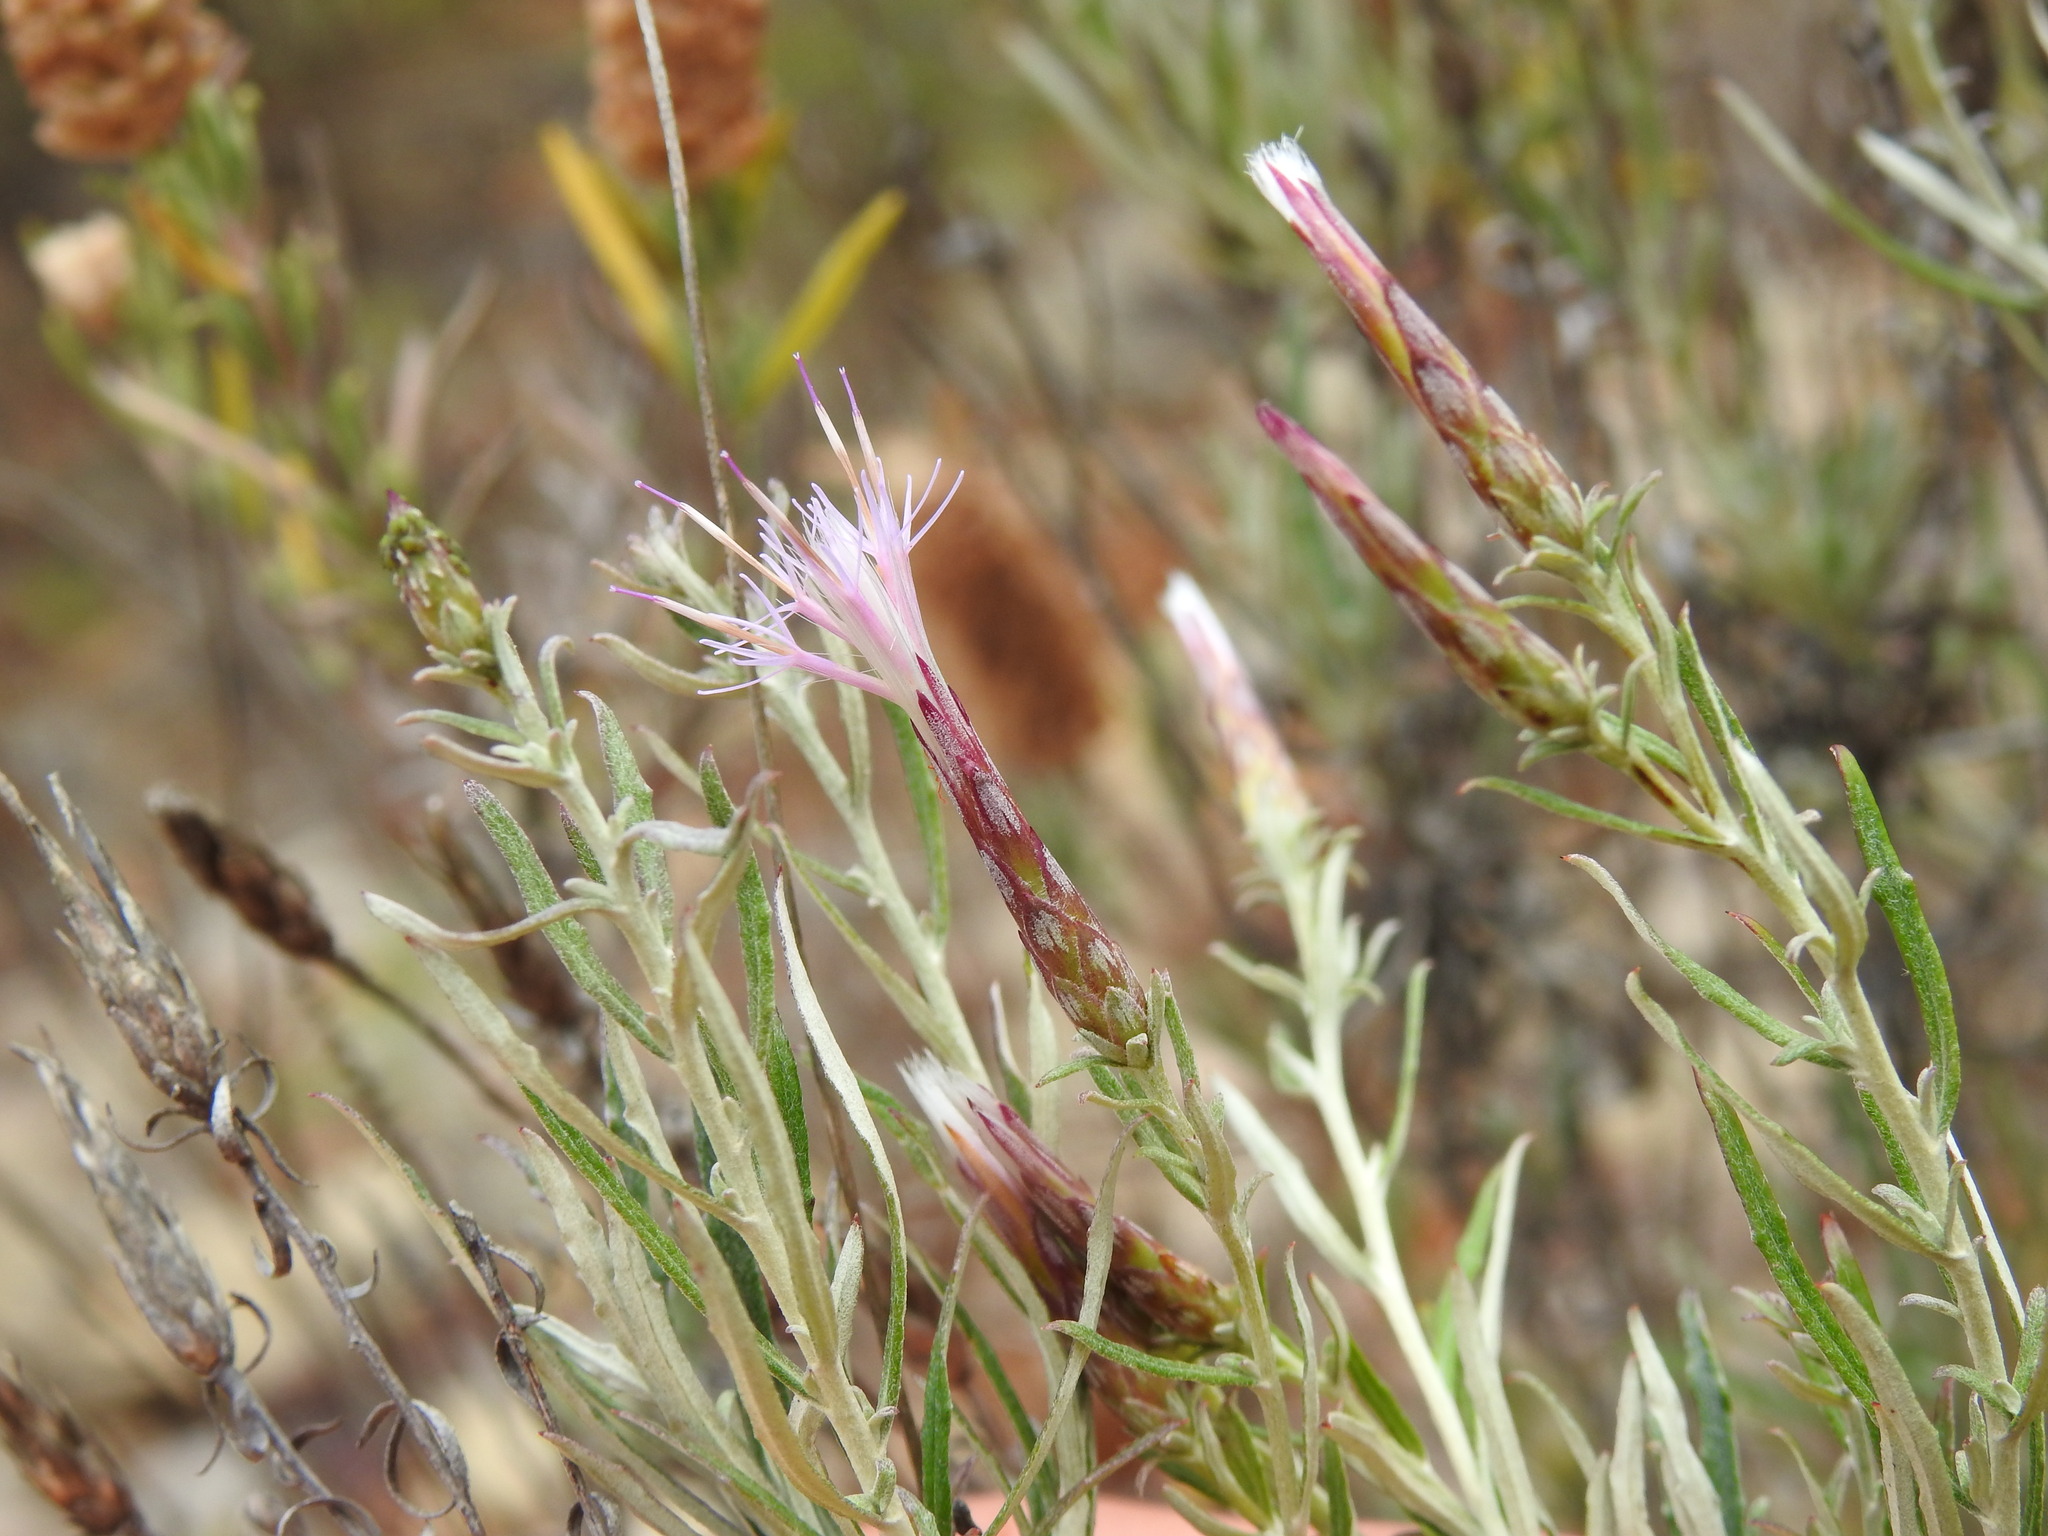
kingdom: Plantae
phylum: Tracheophyta
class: Magnoliopsida
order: Asterales
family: Asteraceae
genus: Staehelina
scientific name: Staehelina dubia
